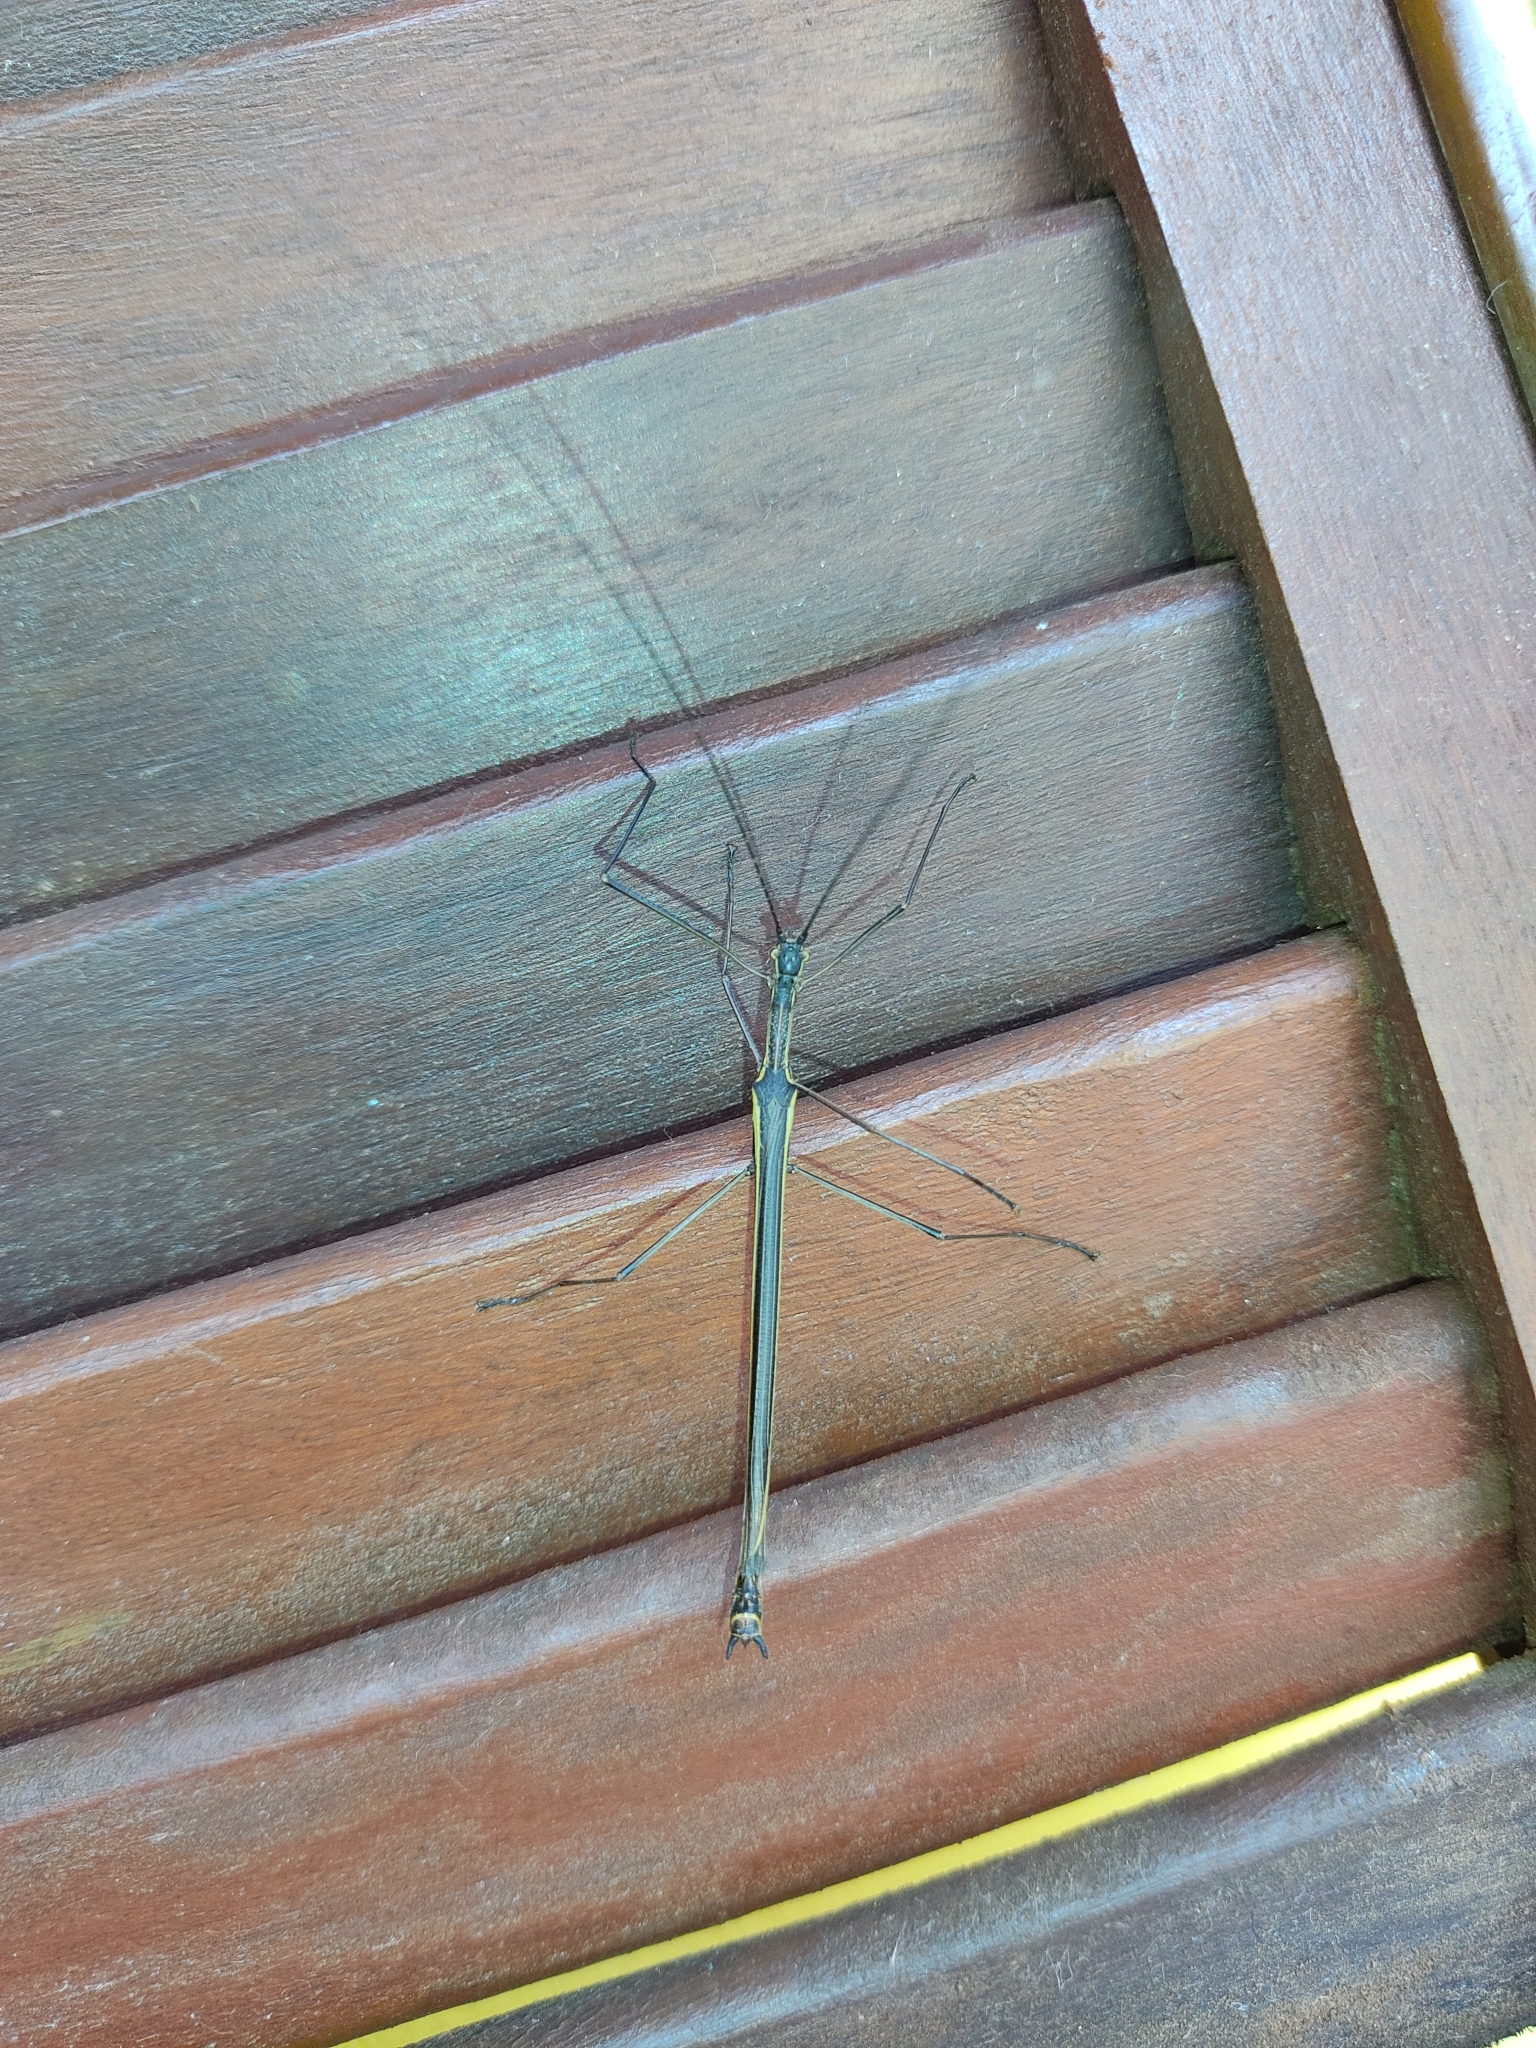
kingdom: Animalia
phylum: Arthropoda
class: Insecta
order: Phasmida
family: Pseudophasmatidae
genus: Paraphasma
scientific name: Paraphasma laterale
